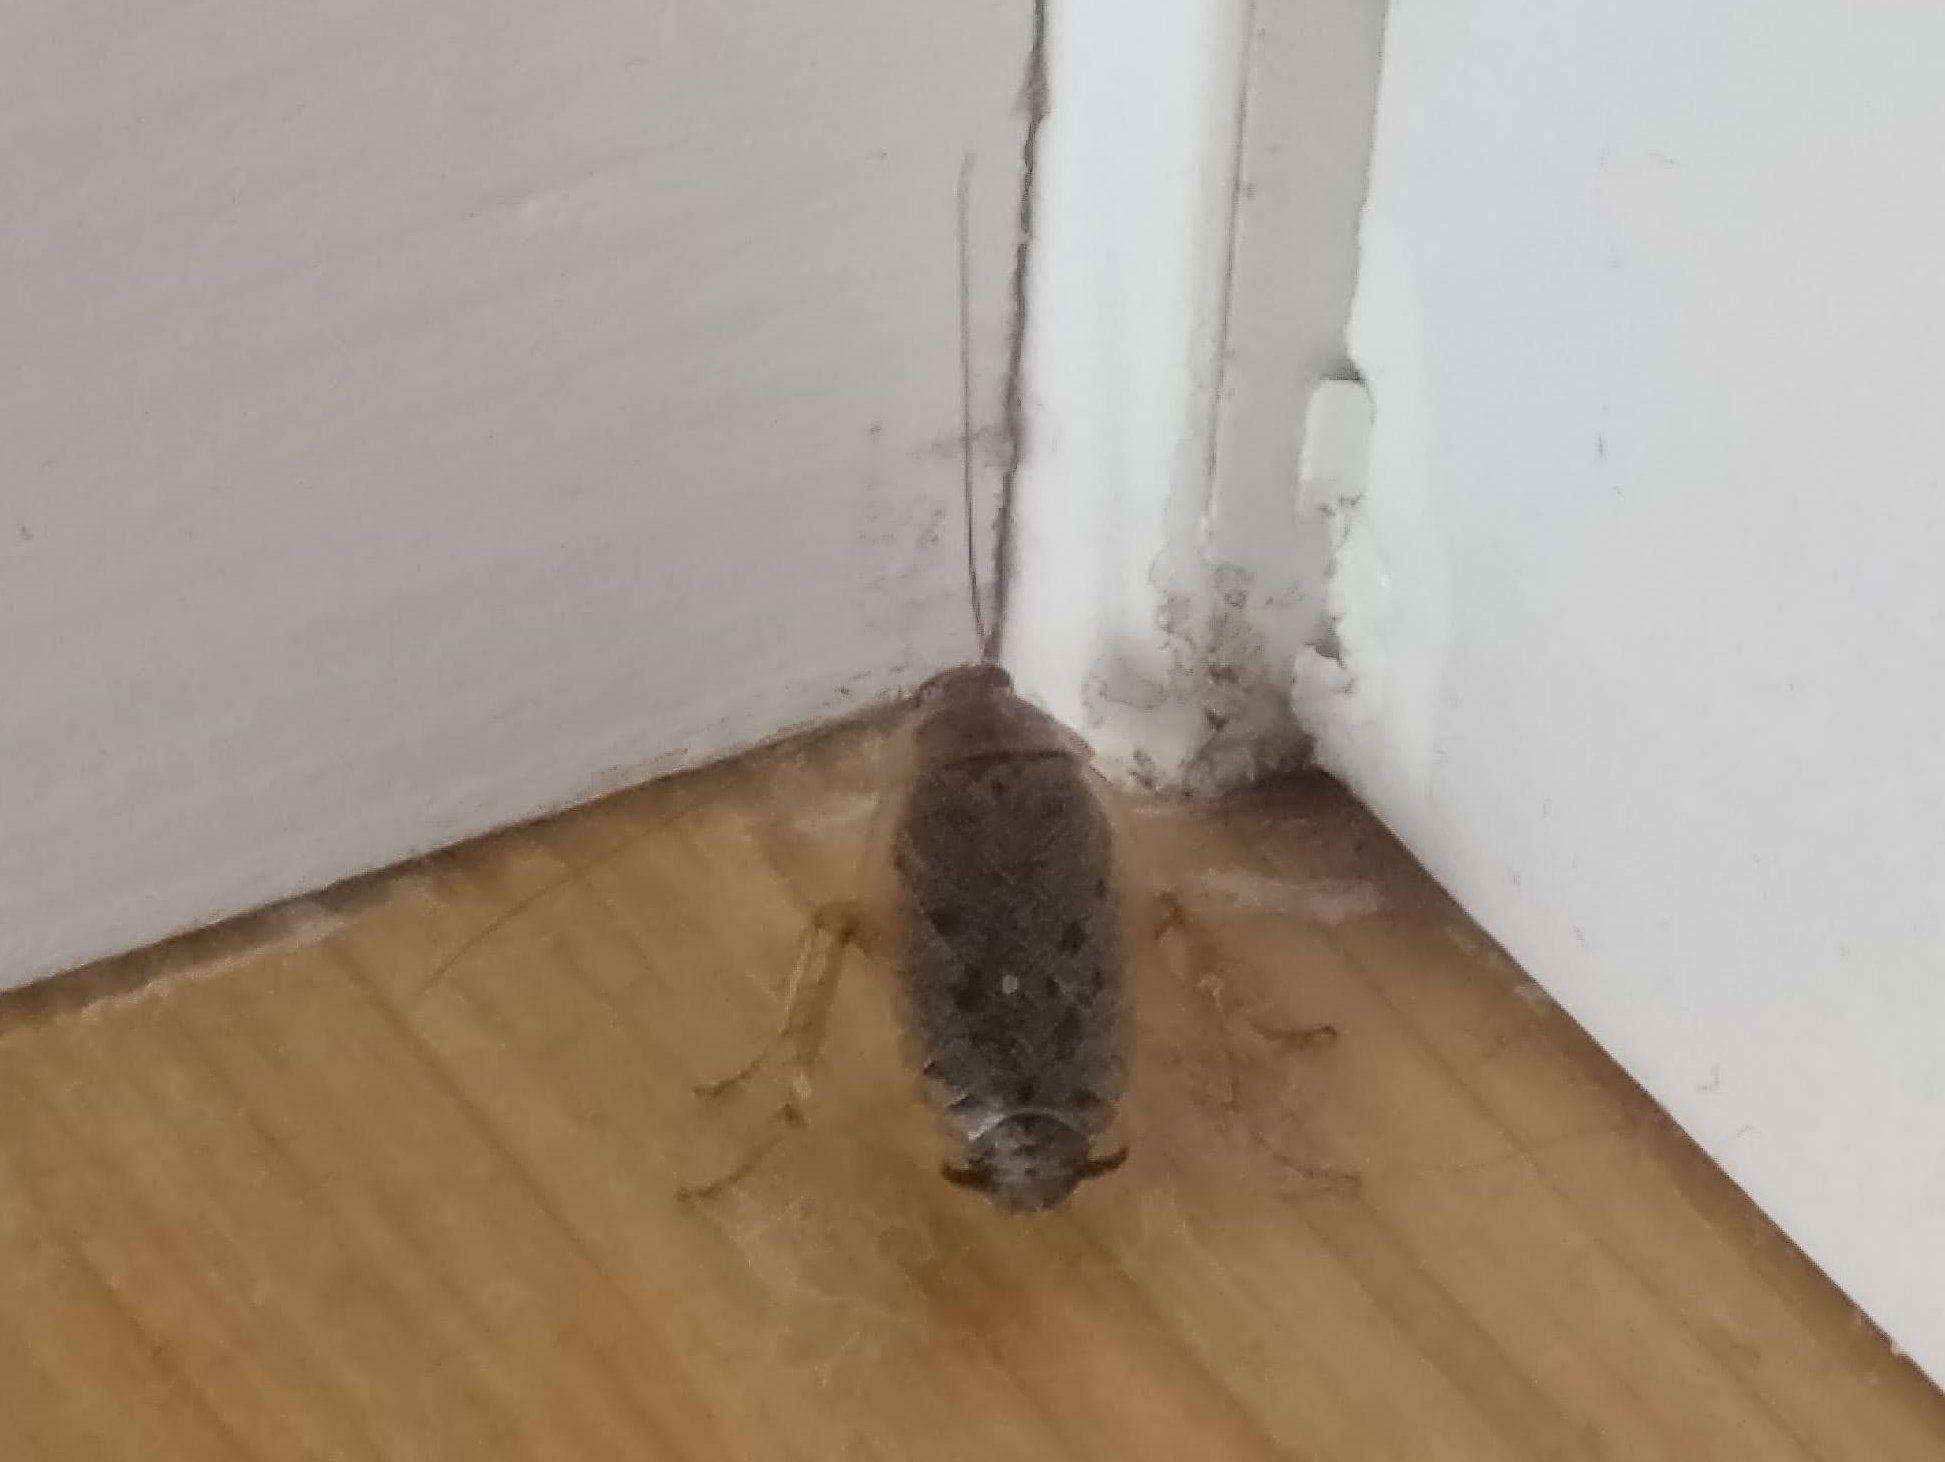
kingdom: Animalia
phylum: Arthropoda
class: Insecta
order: Blattodea
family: Ectobiidae
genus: Ectobius
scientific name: Ectobius lapponicus
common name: Dusky cockroach
